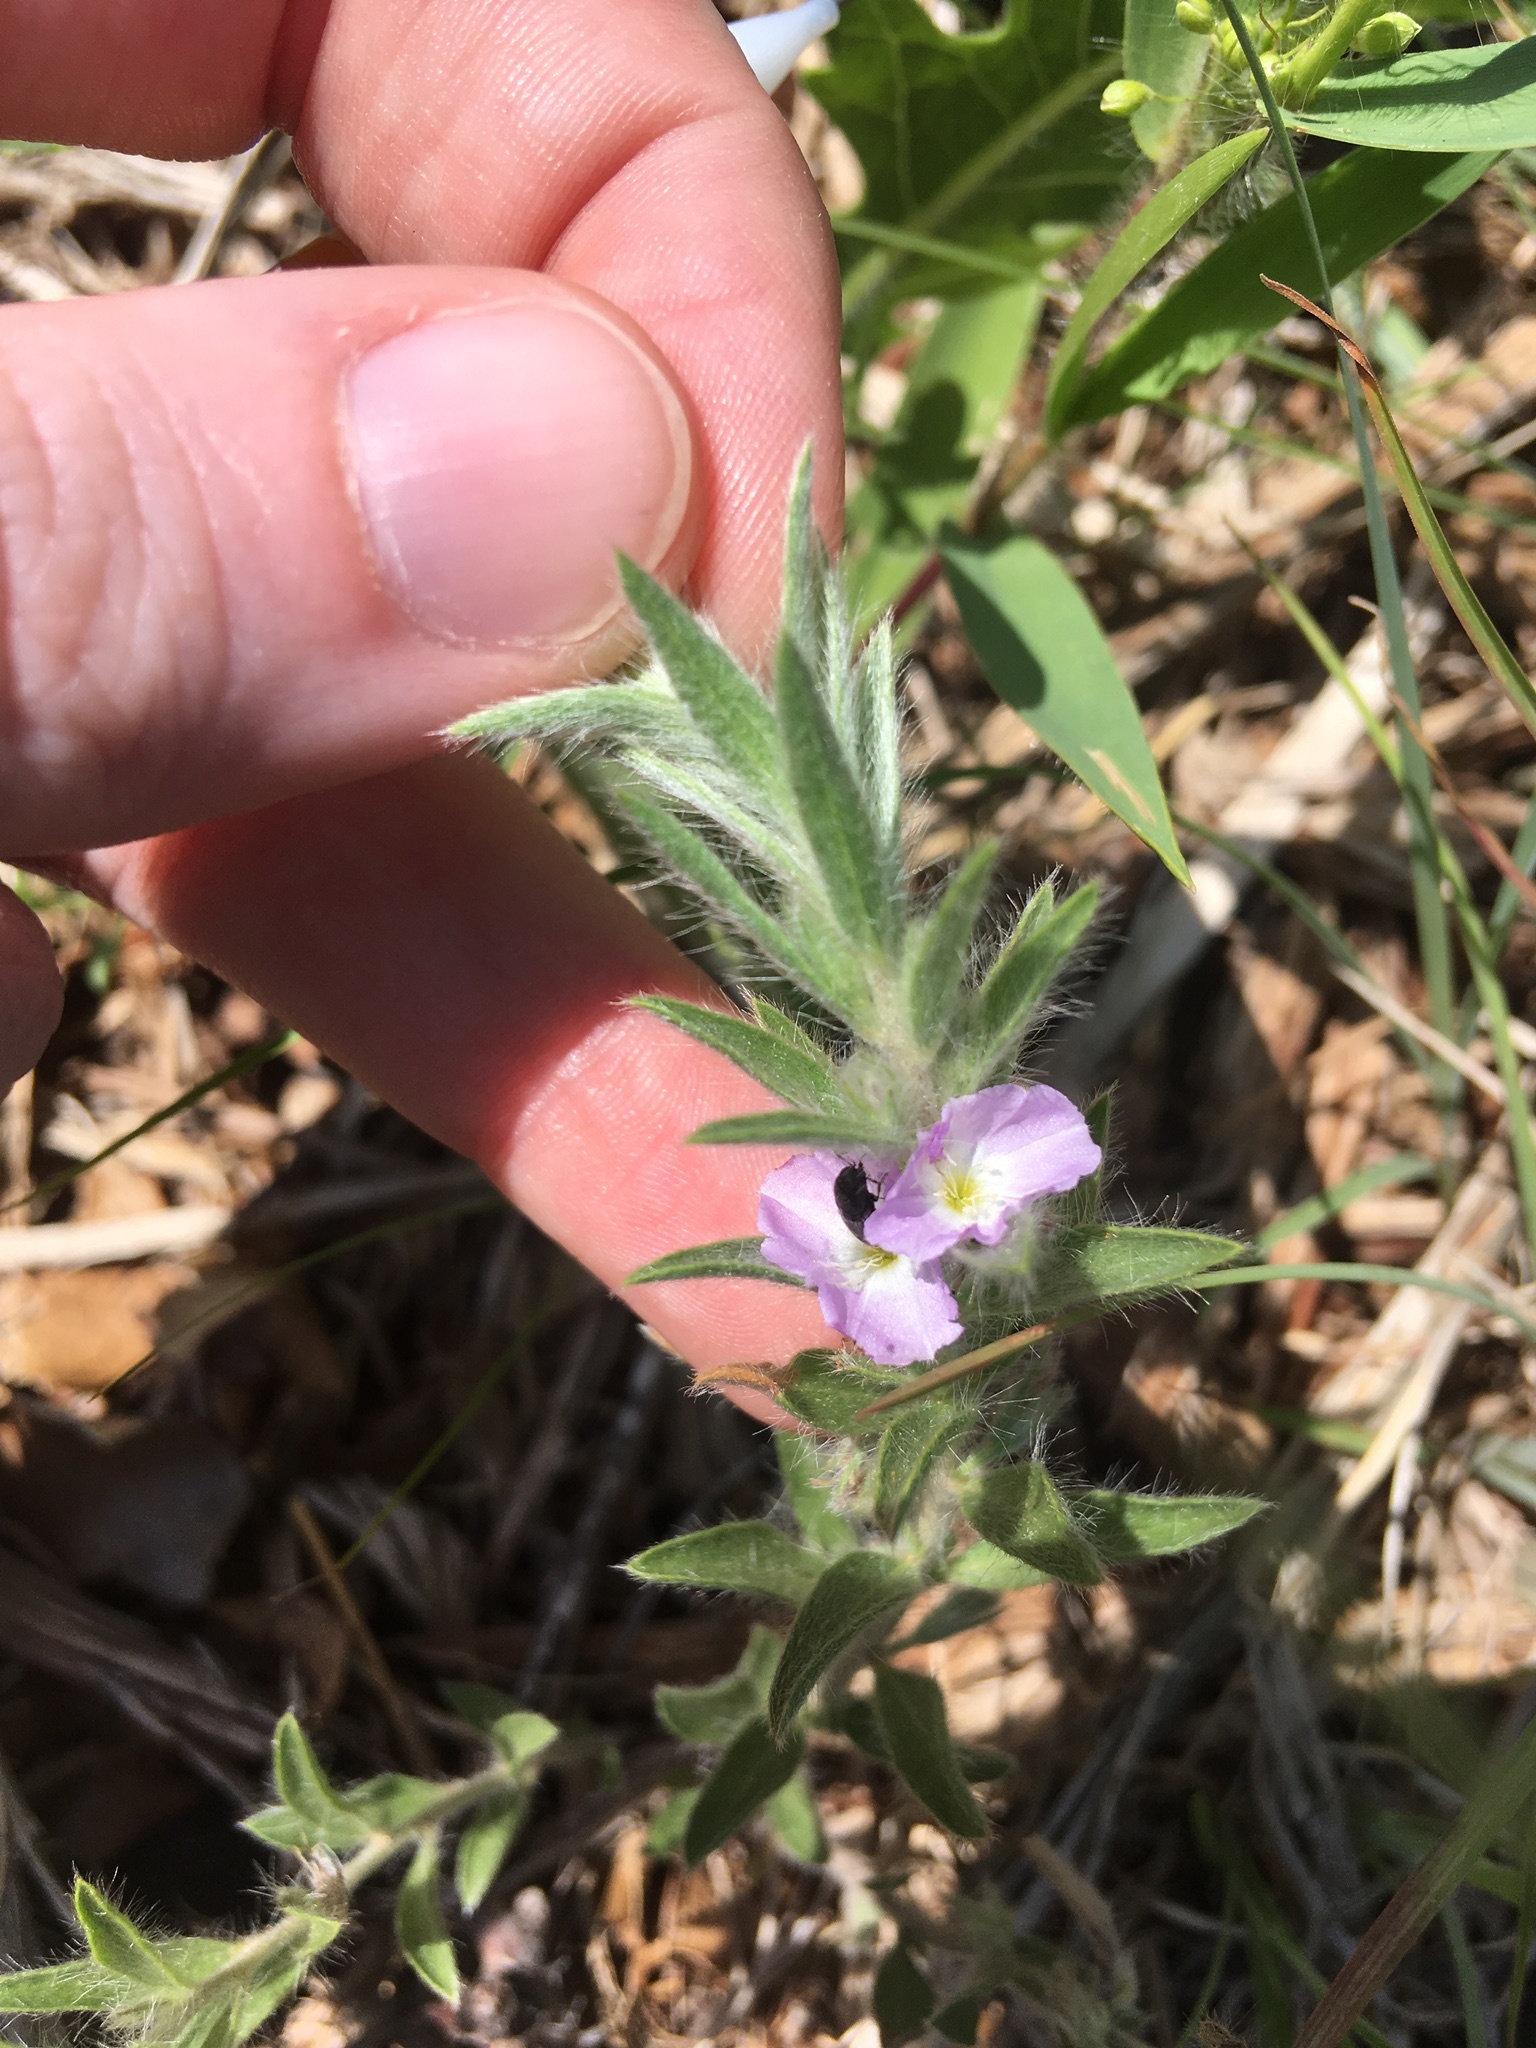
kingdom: Plantae
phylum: Tracheophyta
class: Magnoliopsida
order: Solanales
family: Convolvulaceae
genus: Evolvulus
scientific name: Evolvulus nuttallianus
